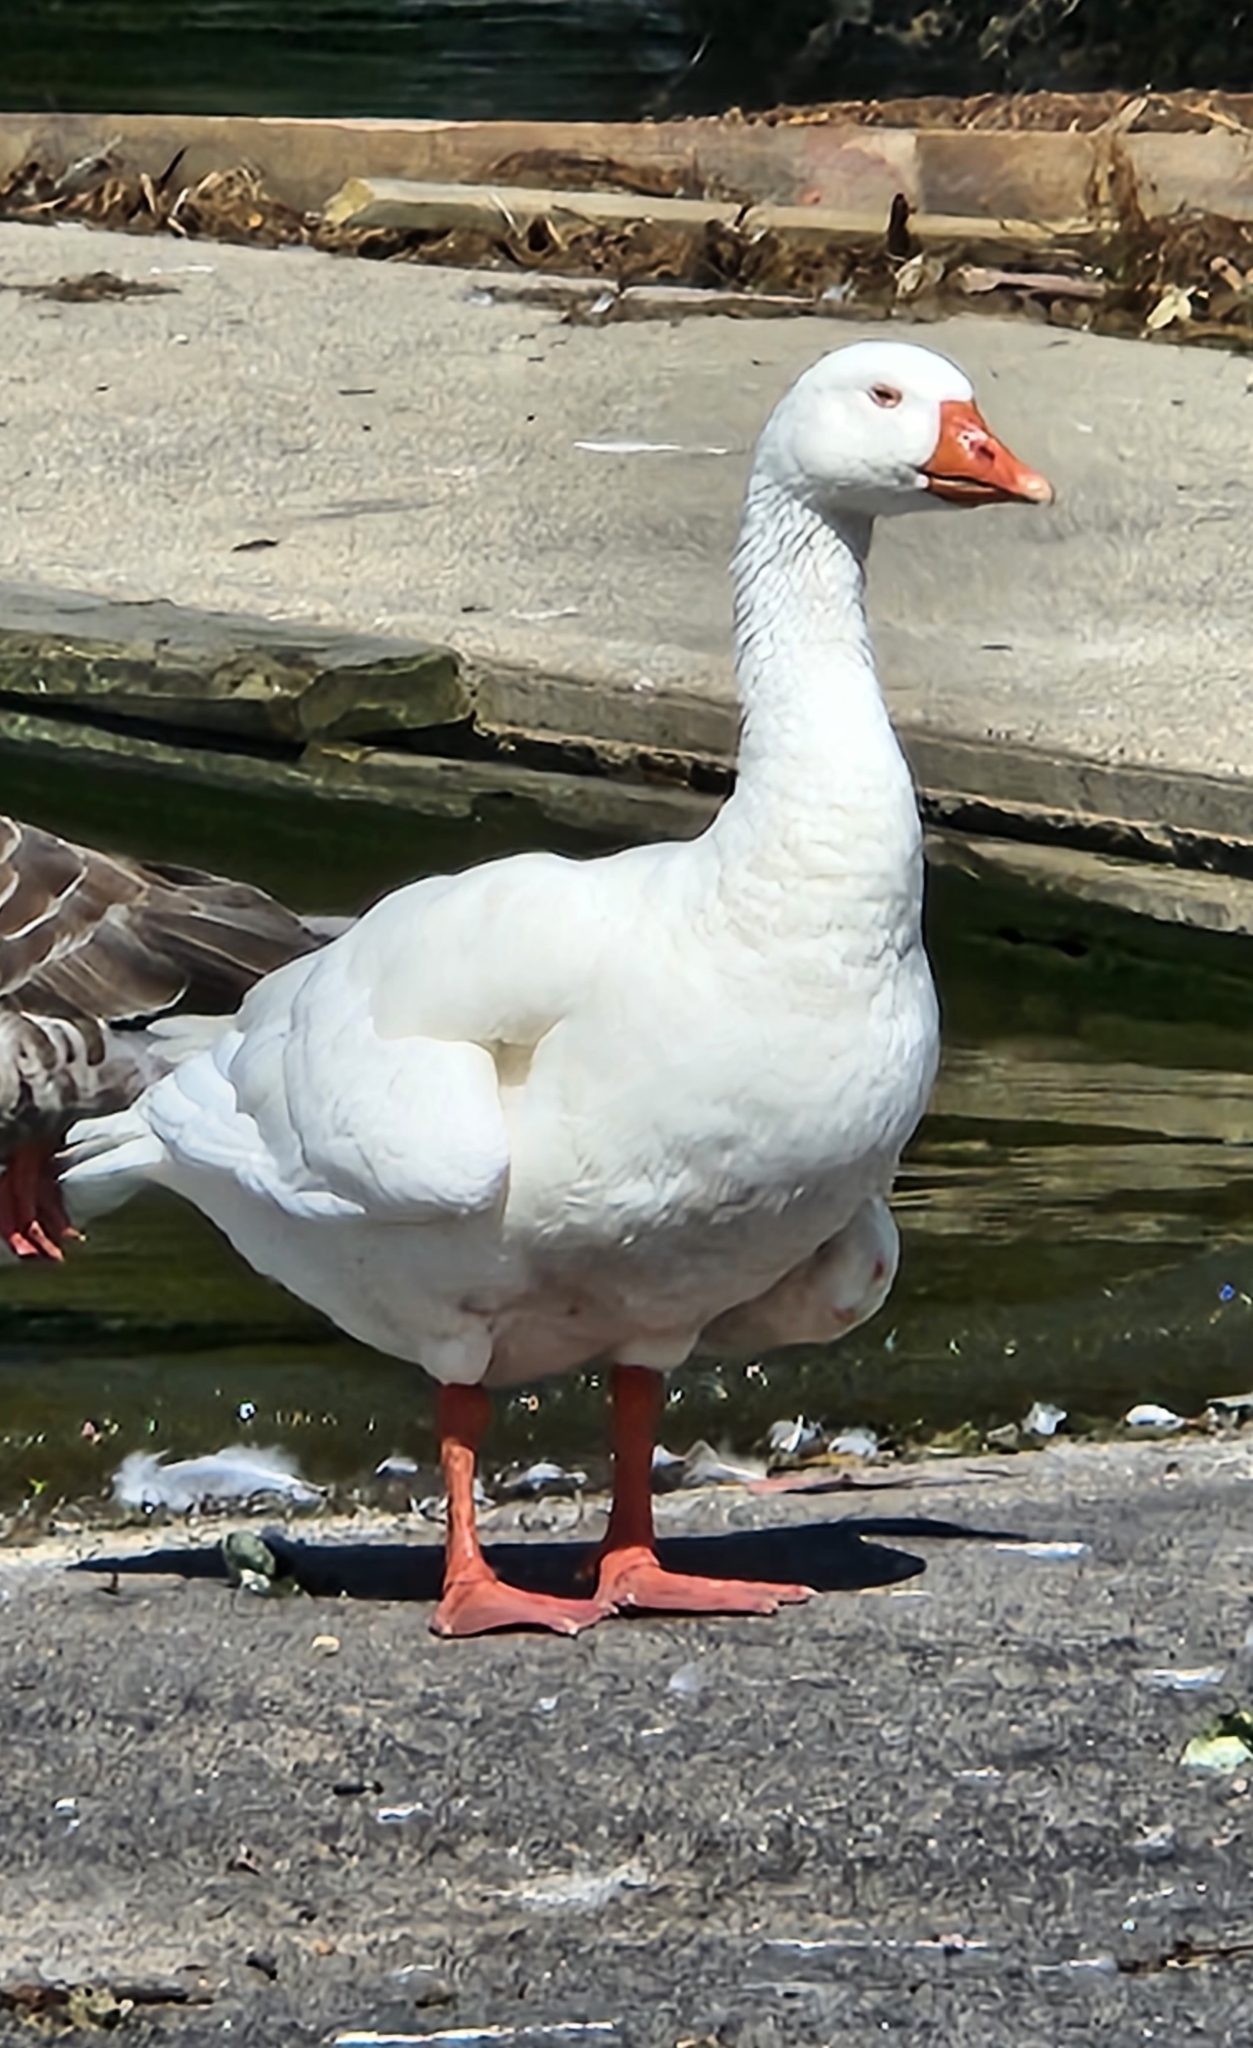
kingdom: Animalia
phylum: Chordata
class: Aves
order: Anseriformes
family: Anatidae
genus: Anser
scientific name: Anser anser
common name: Greylag goose
